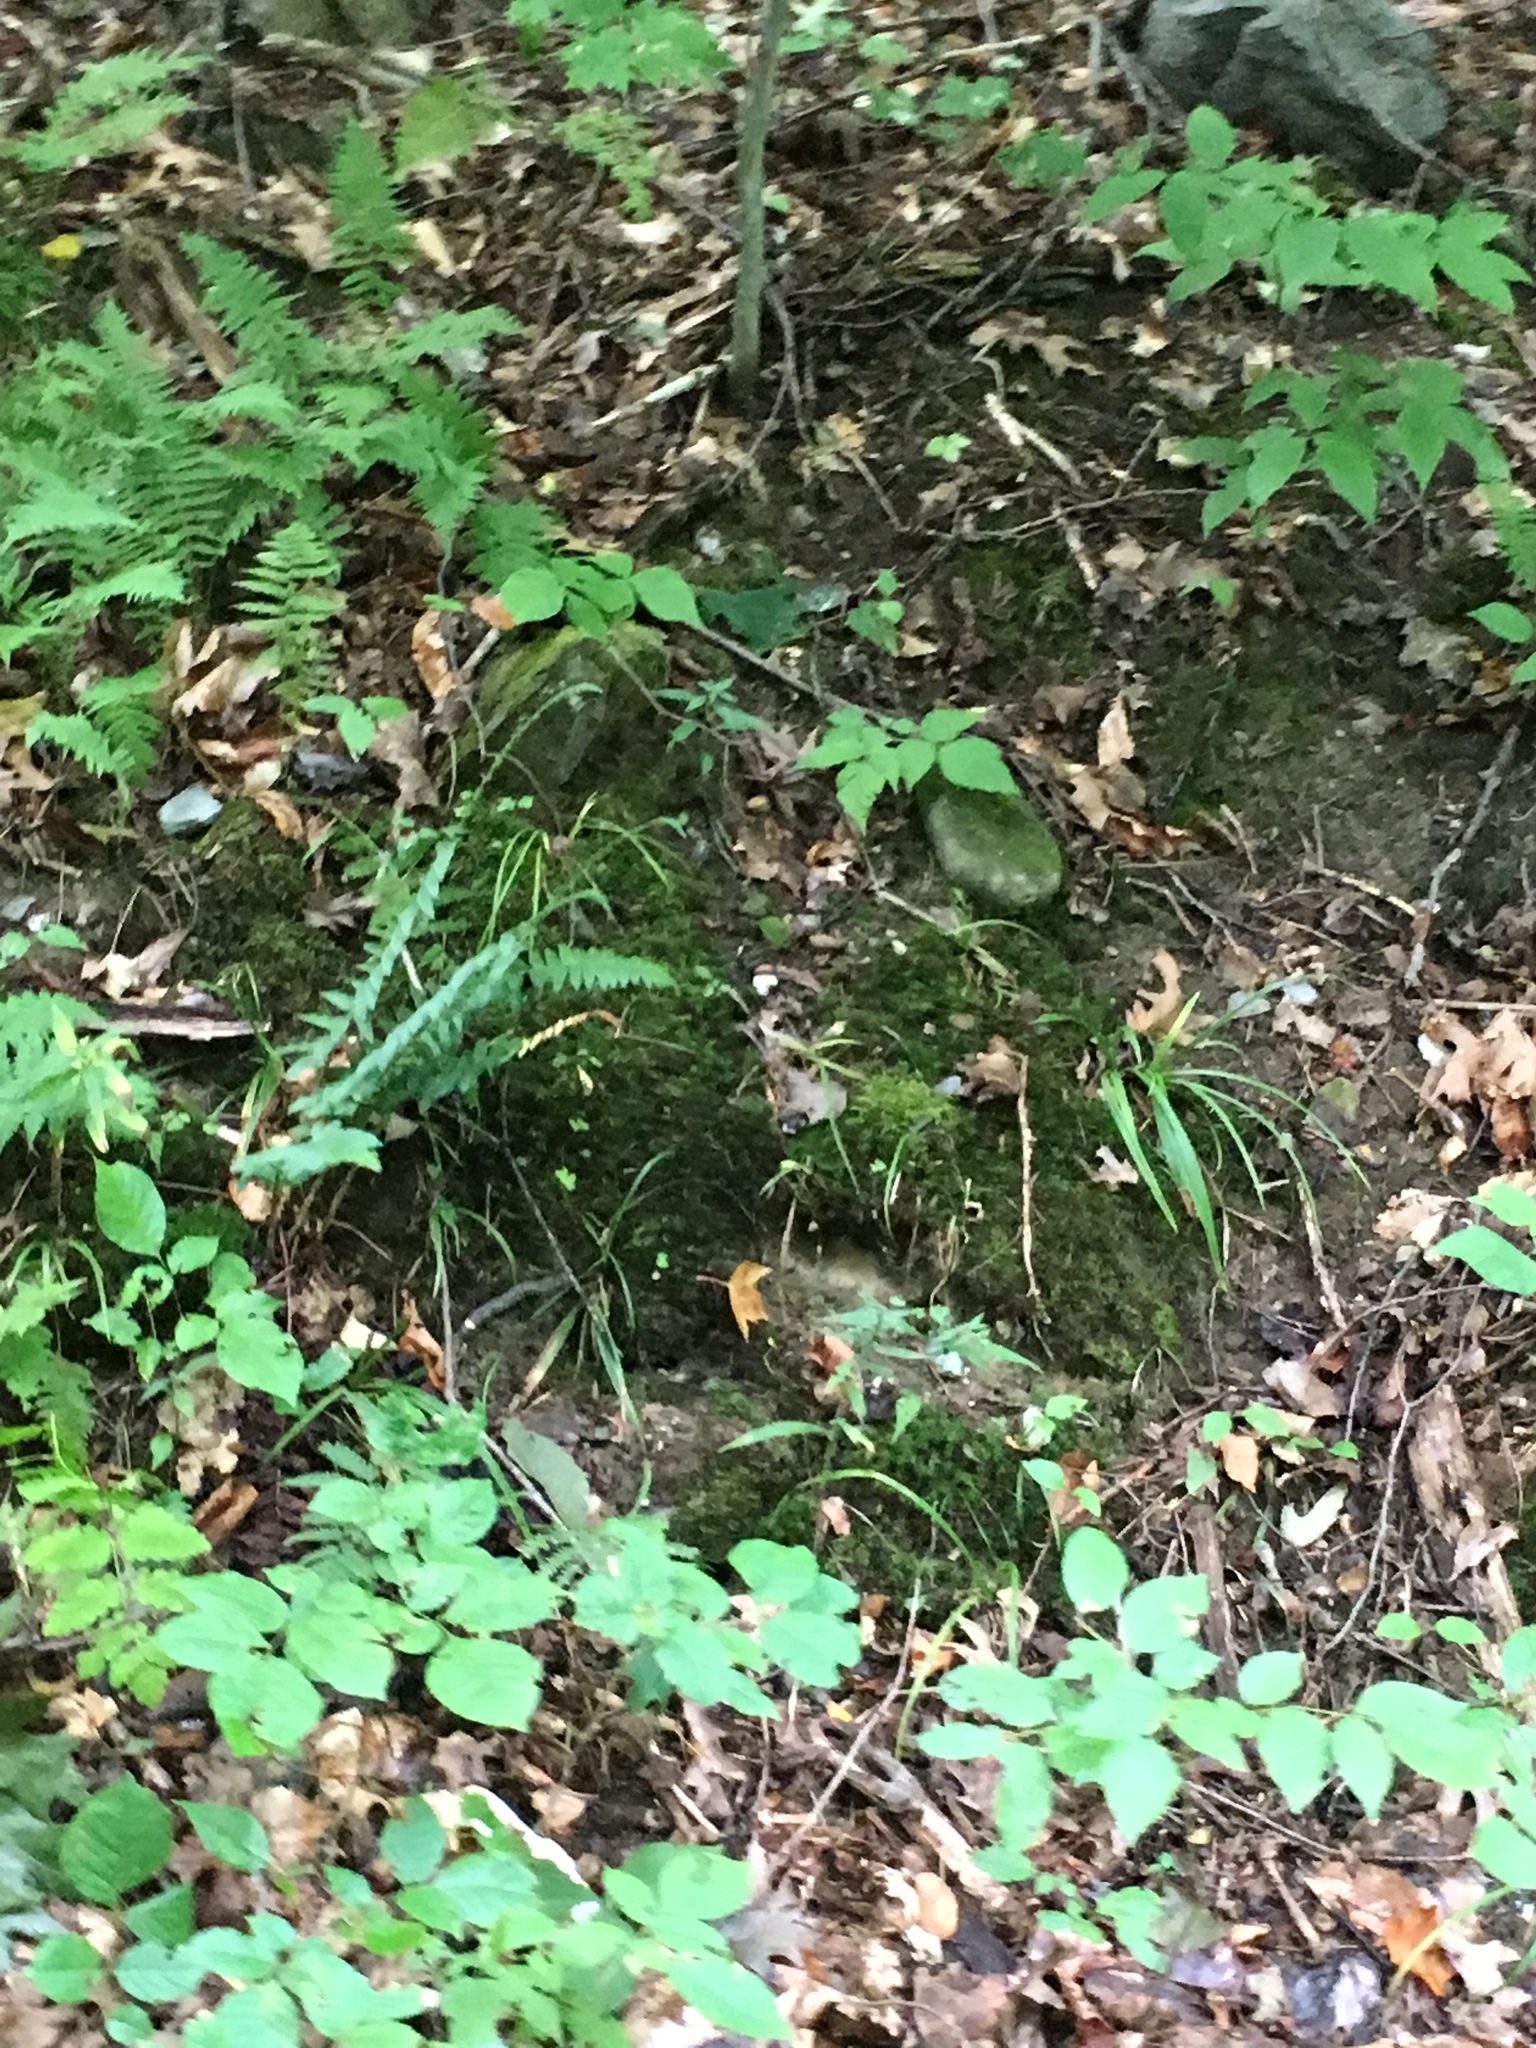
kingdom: Plantae
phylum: Tracheophyta
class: Polypodiopsida
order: Polypodiales
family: Dryopteridaceae
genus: Polystichum
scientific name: Polystichum acrostichoides
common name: Christmas fern
